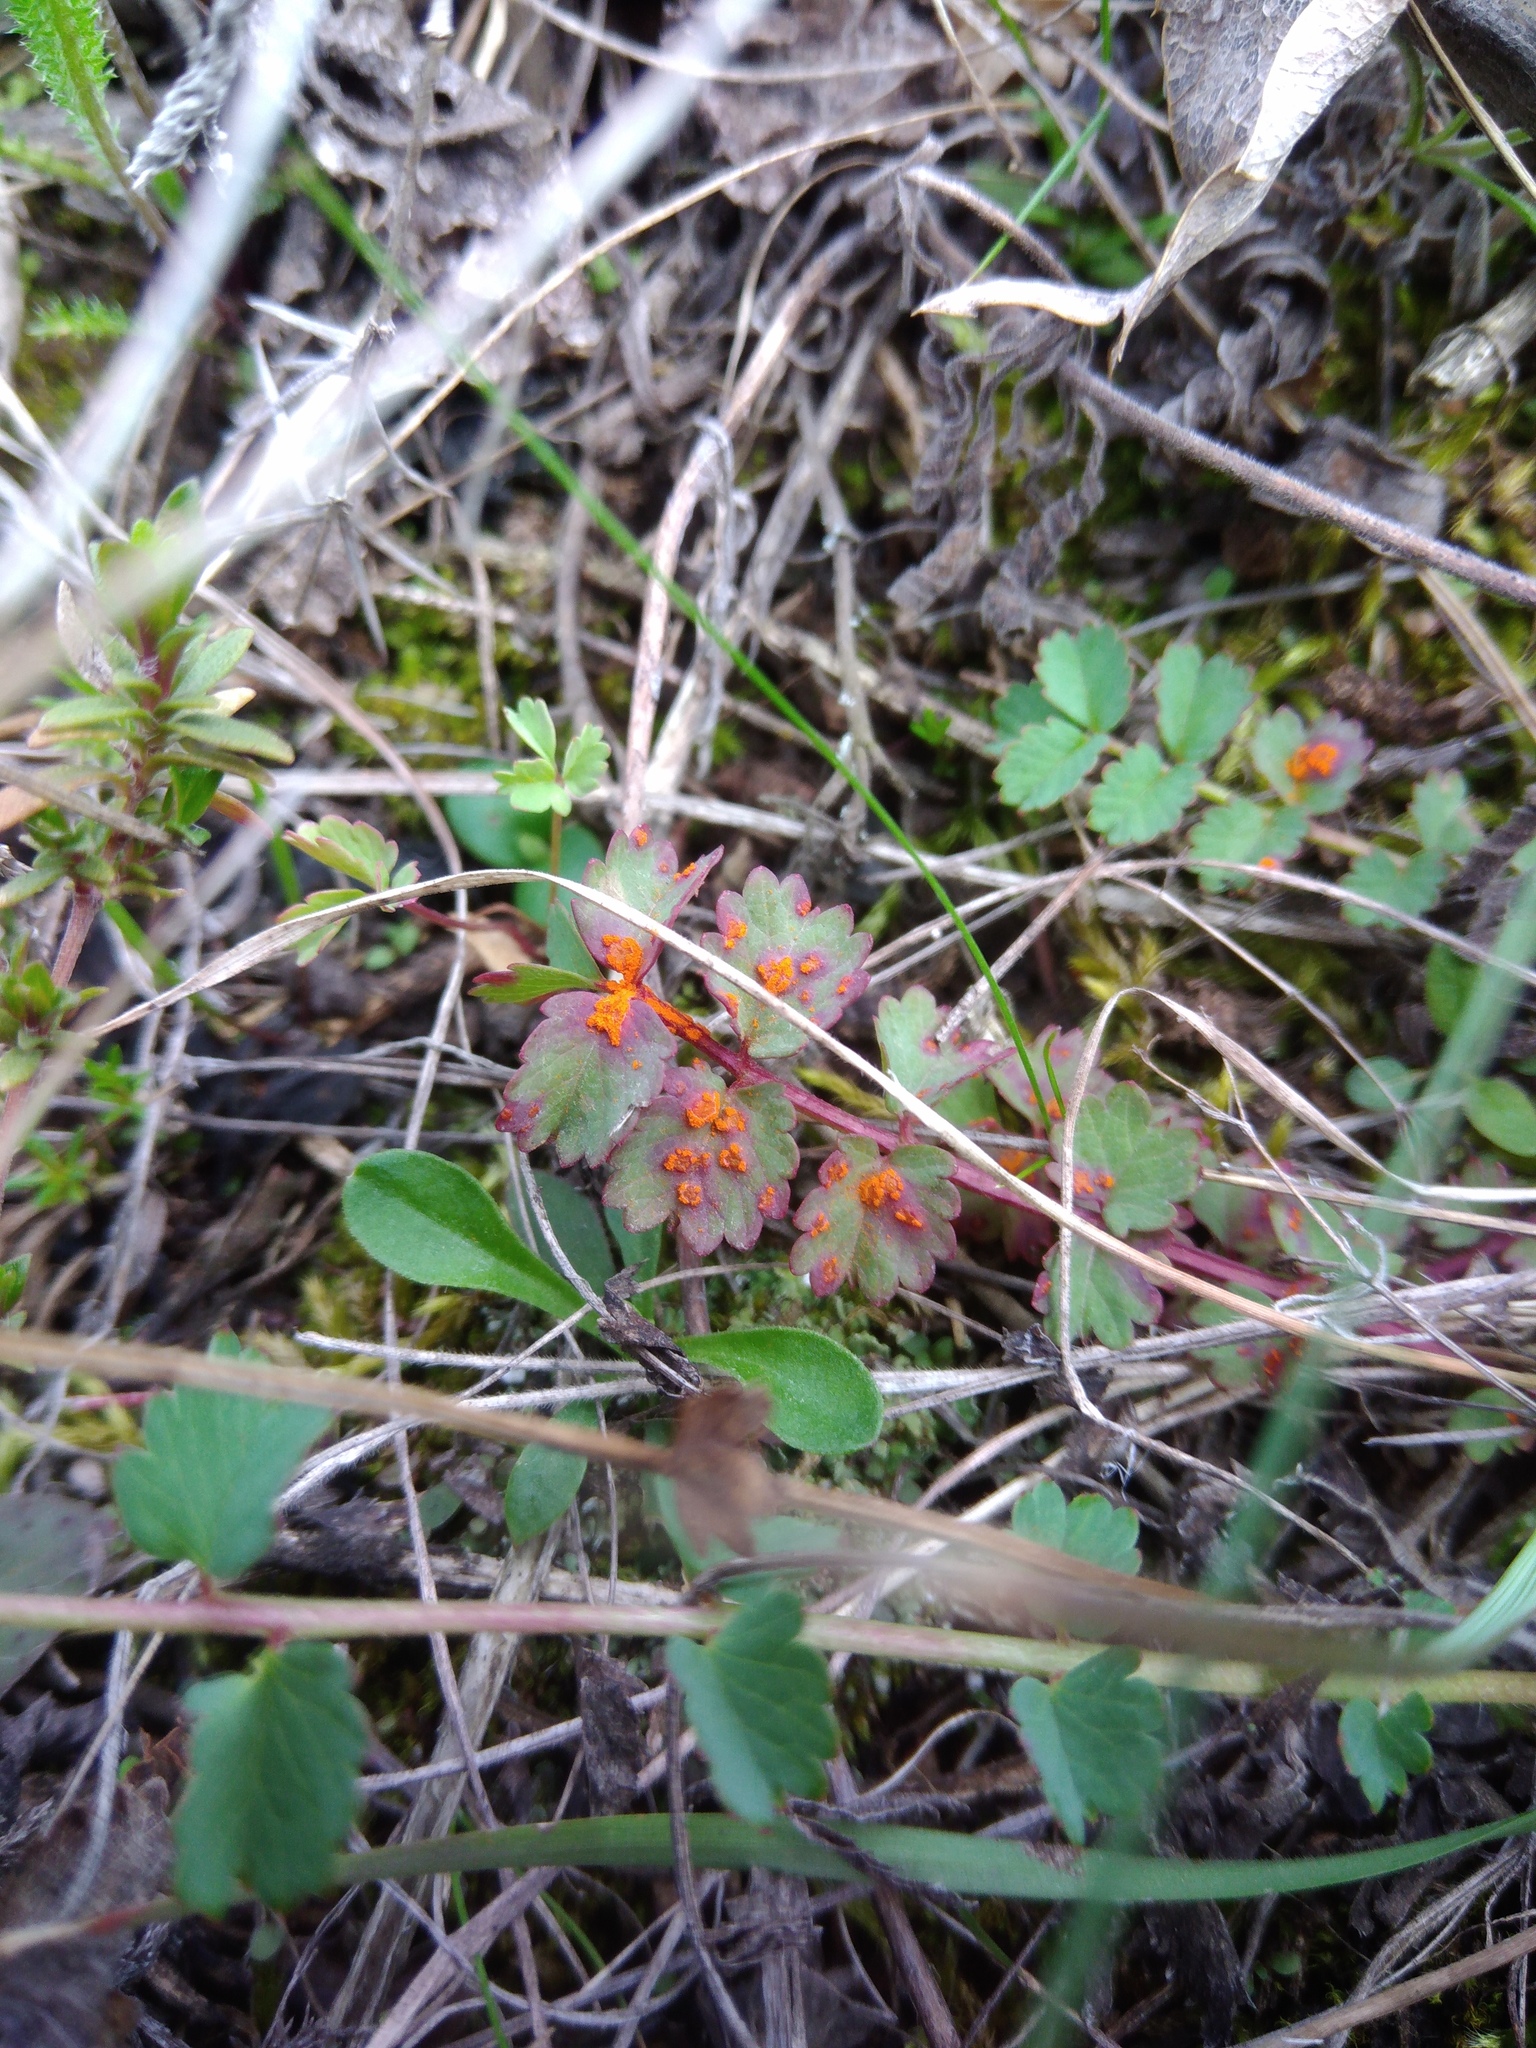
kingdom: Fungi
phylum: Basidiomycota
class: Pucciniomycetes
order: Pucciniales
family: Phragmidiaceae
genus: Phragmidium
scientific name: Phragmidium sanguisorbae
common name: Salad burnet rust
